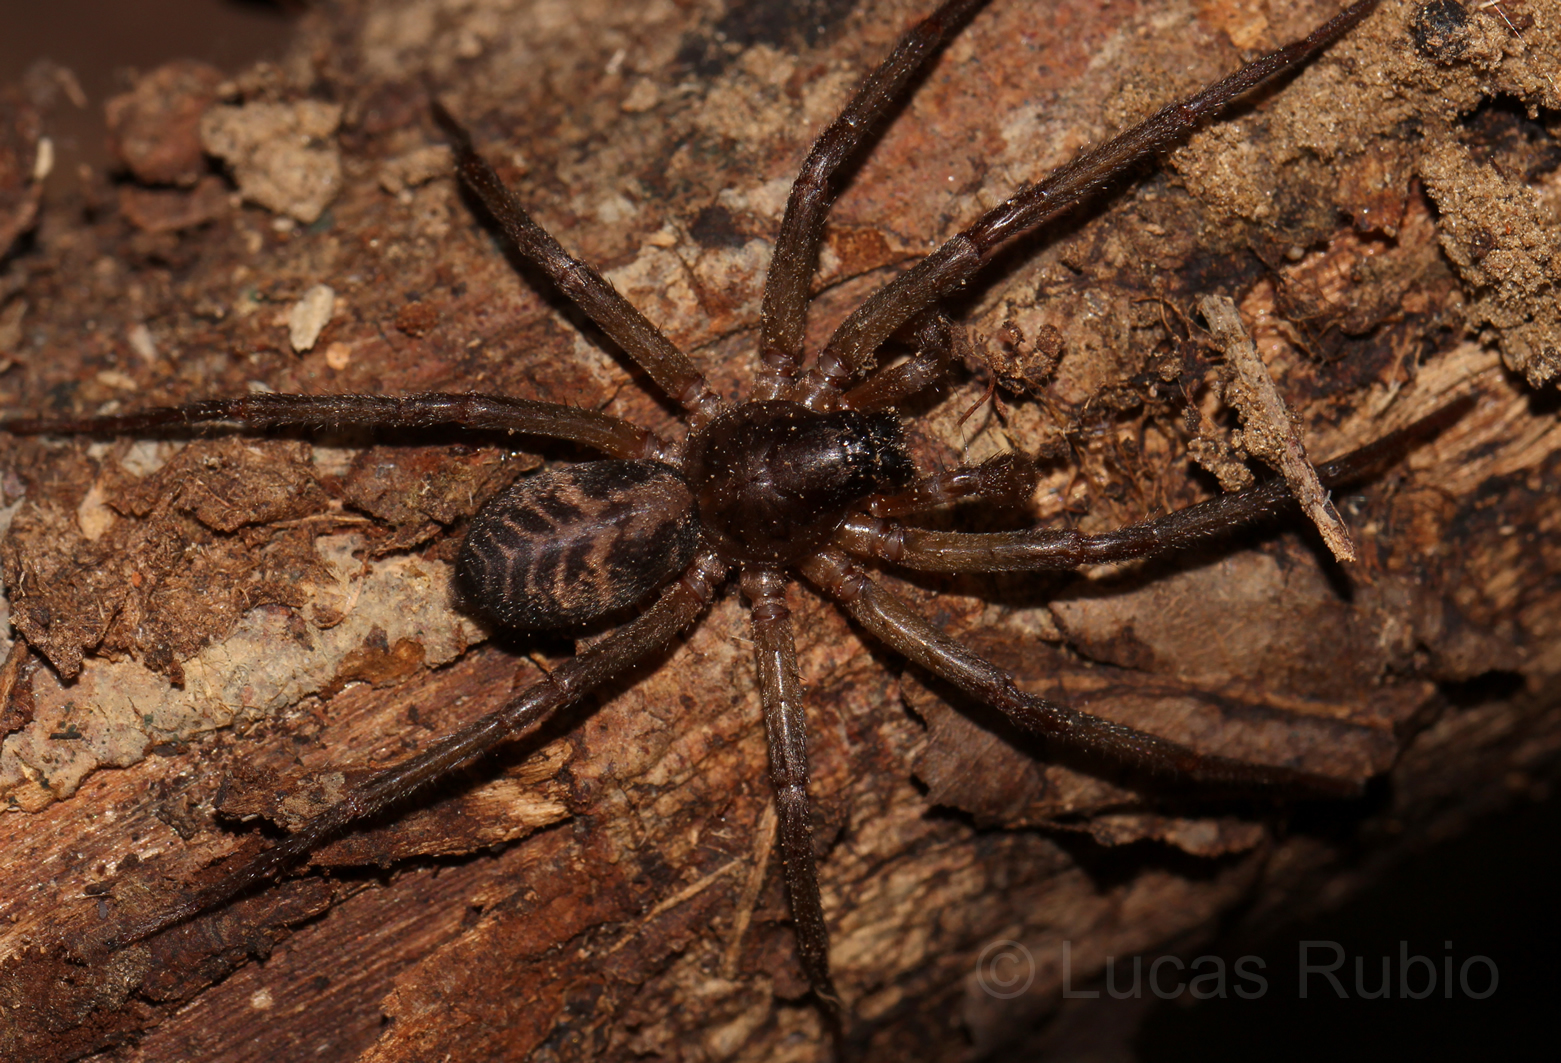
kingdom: Animalia
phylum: Arthropoda
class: Arachnida
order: Araneae
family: Corinnidae
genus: Creugas
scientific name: Creugas lisei
